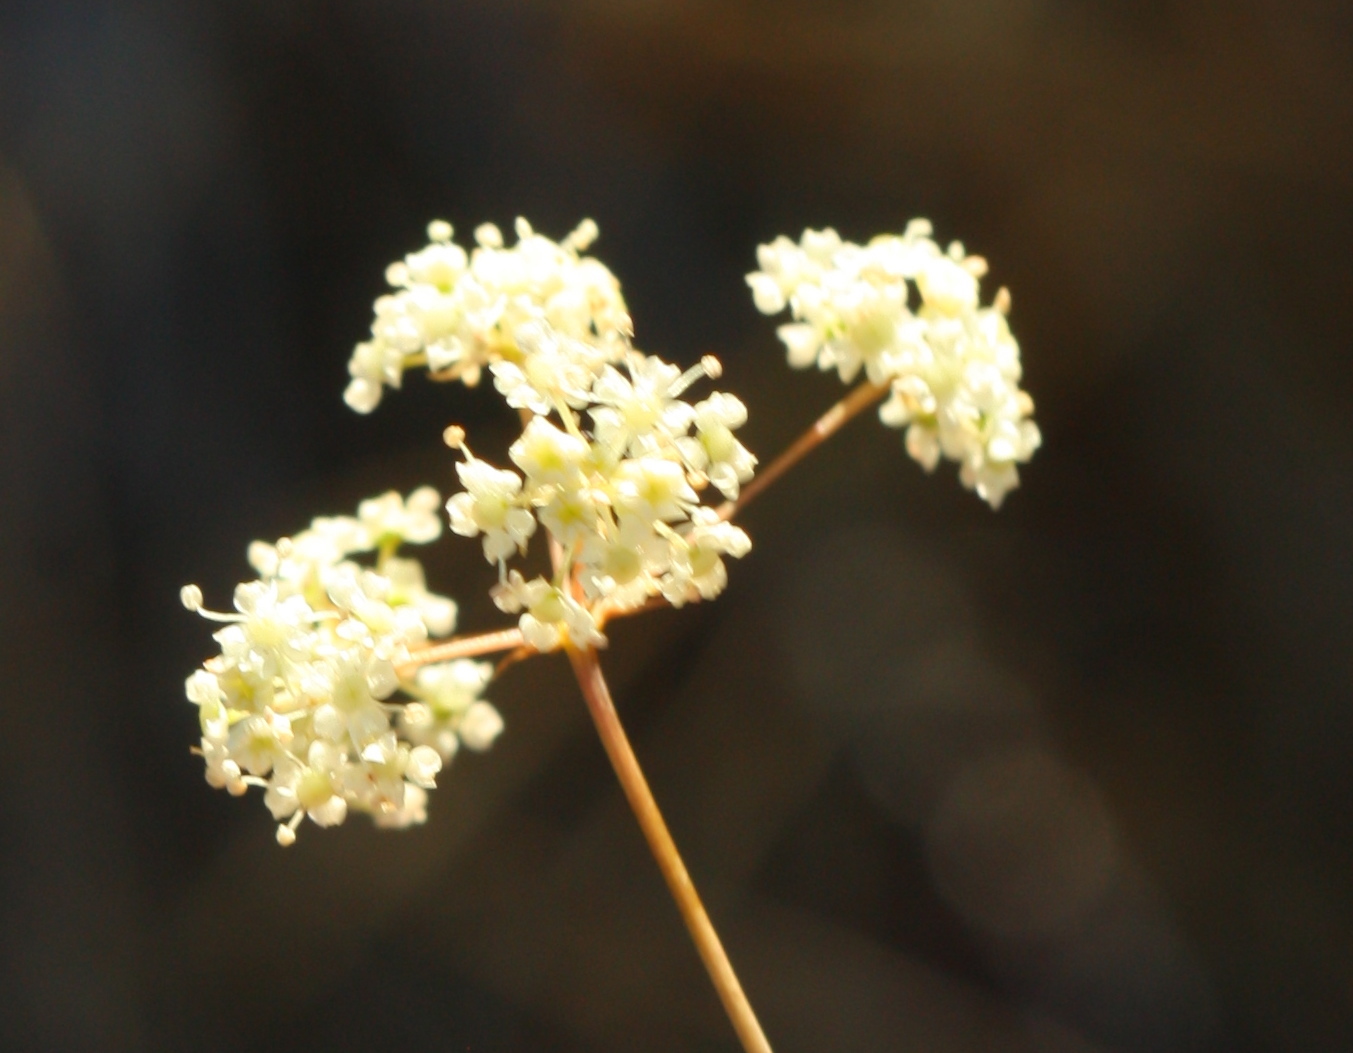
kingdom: Plantae
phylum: Tracheophyta
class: Magnoliopsida
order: Apiales
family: Apiaceae
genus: Perideridia
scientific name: Perideridia kelloggii
